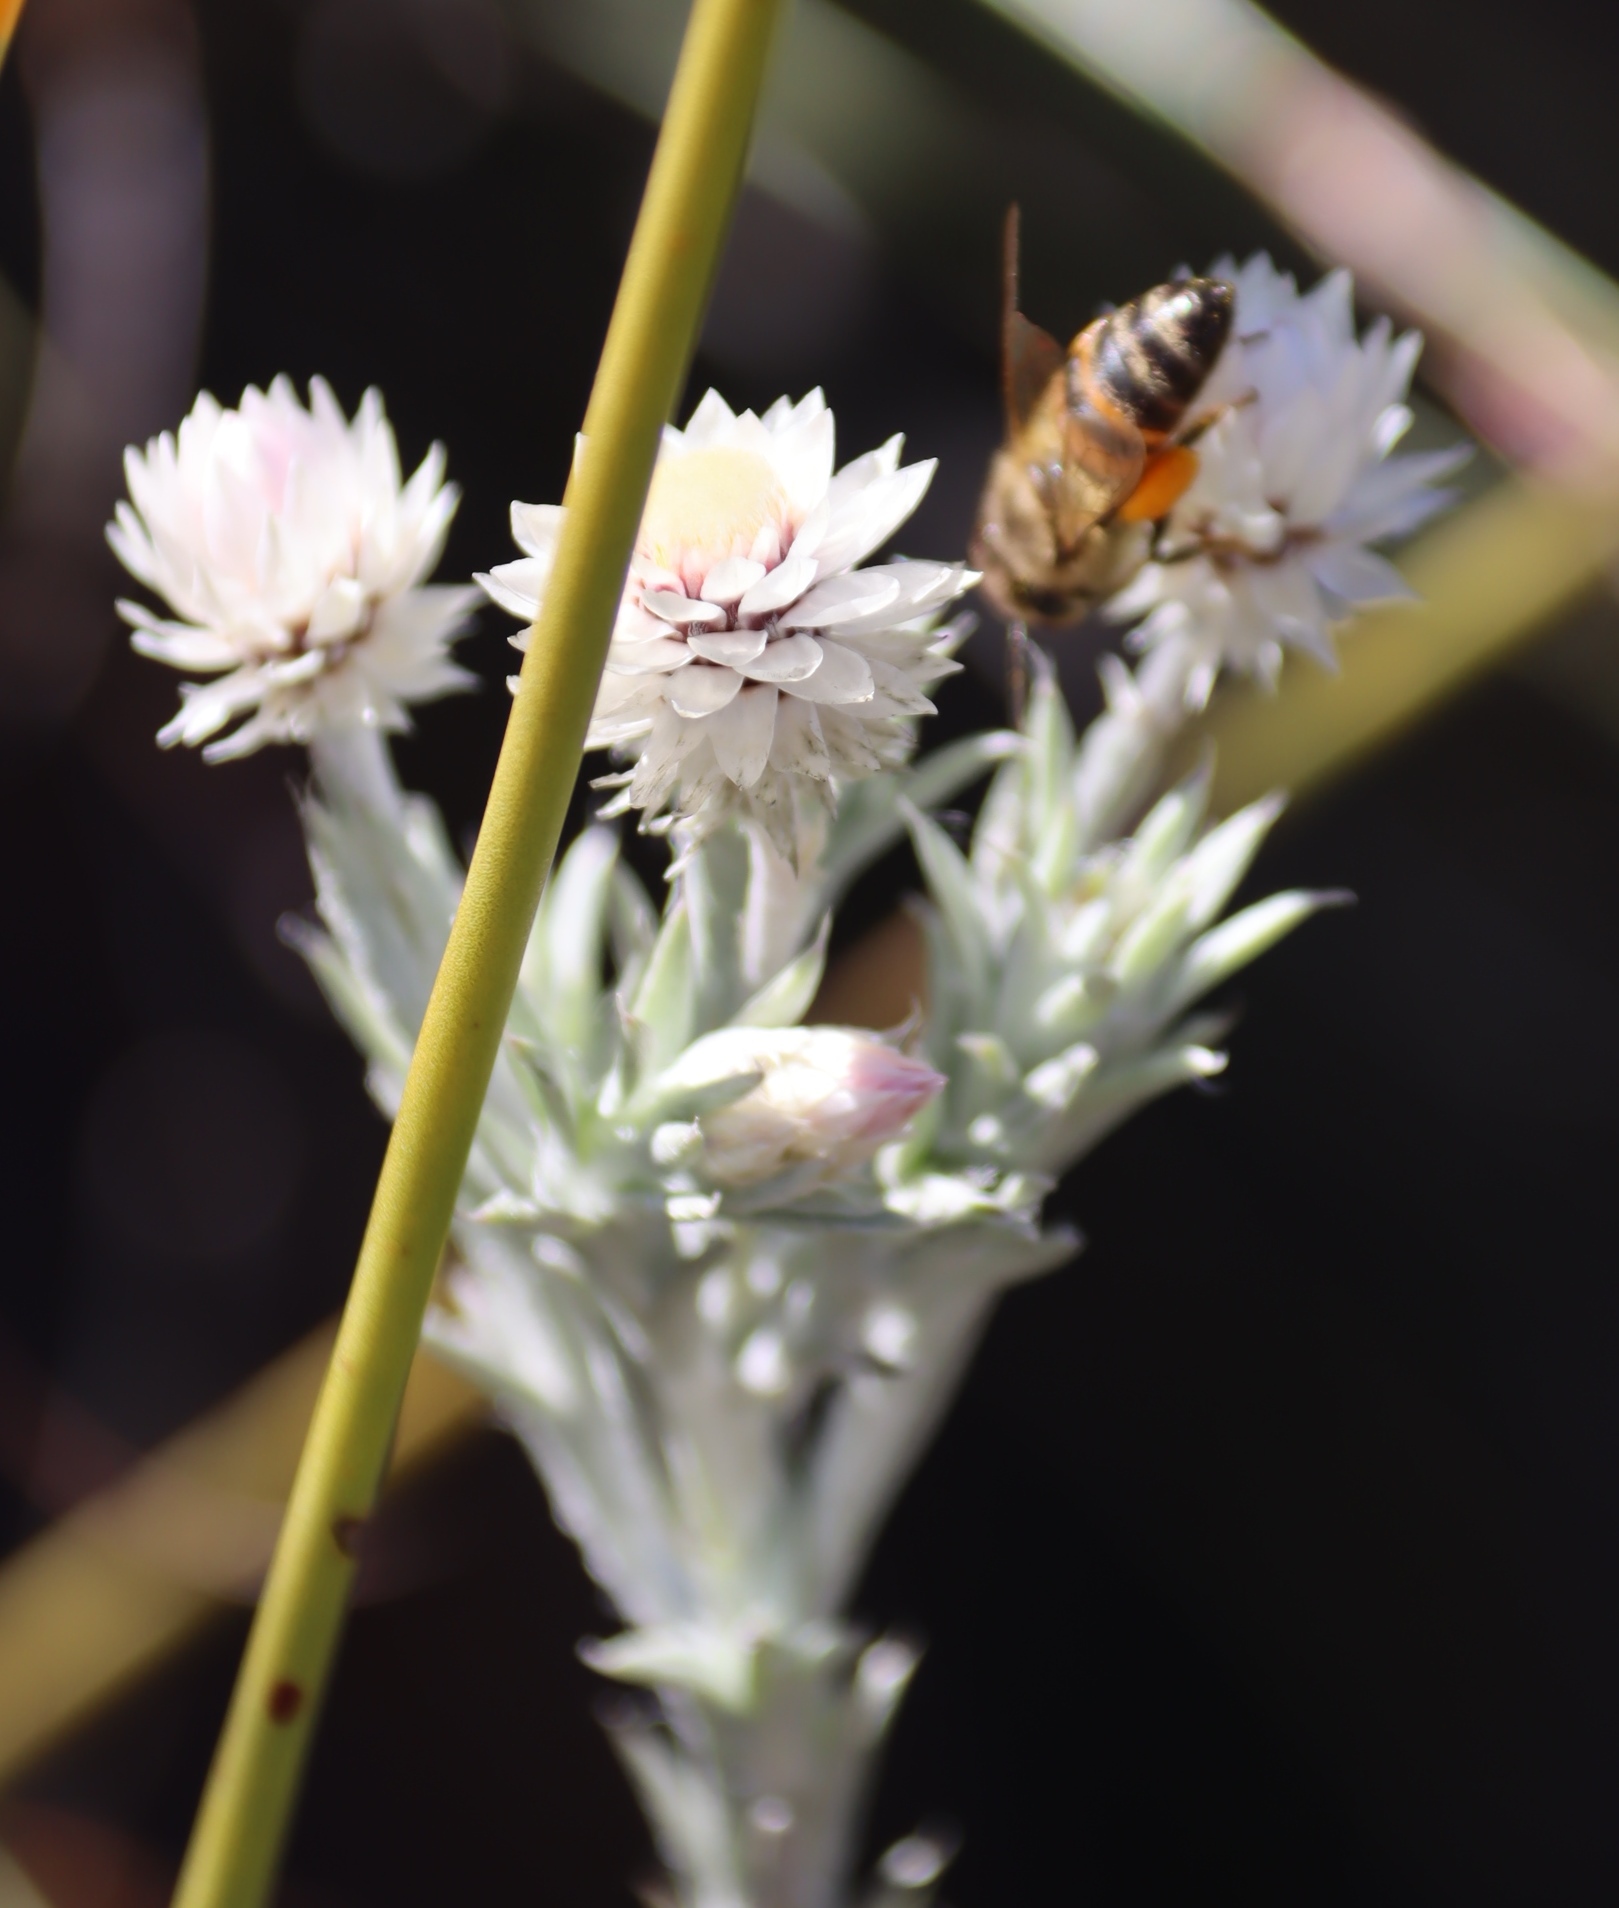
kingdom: Plantae
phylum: Tracheophyta
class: Magnoliopsida
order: Asterales
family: Asteraceae
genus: Achyranthemum
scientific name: Achyranthemum paniculatum
